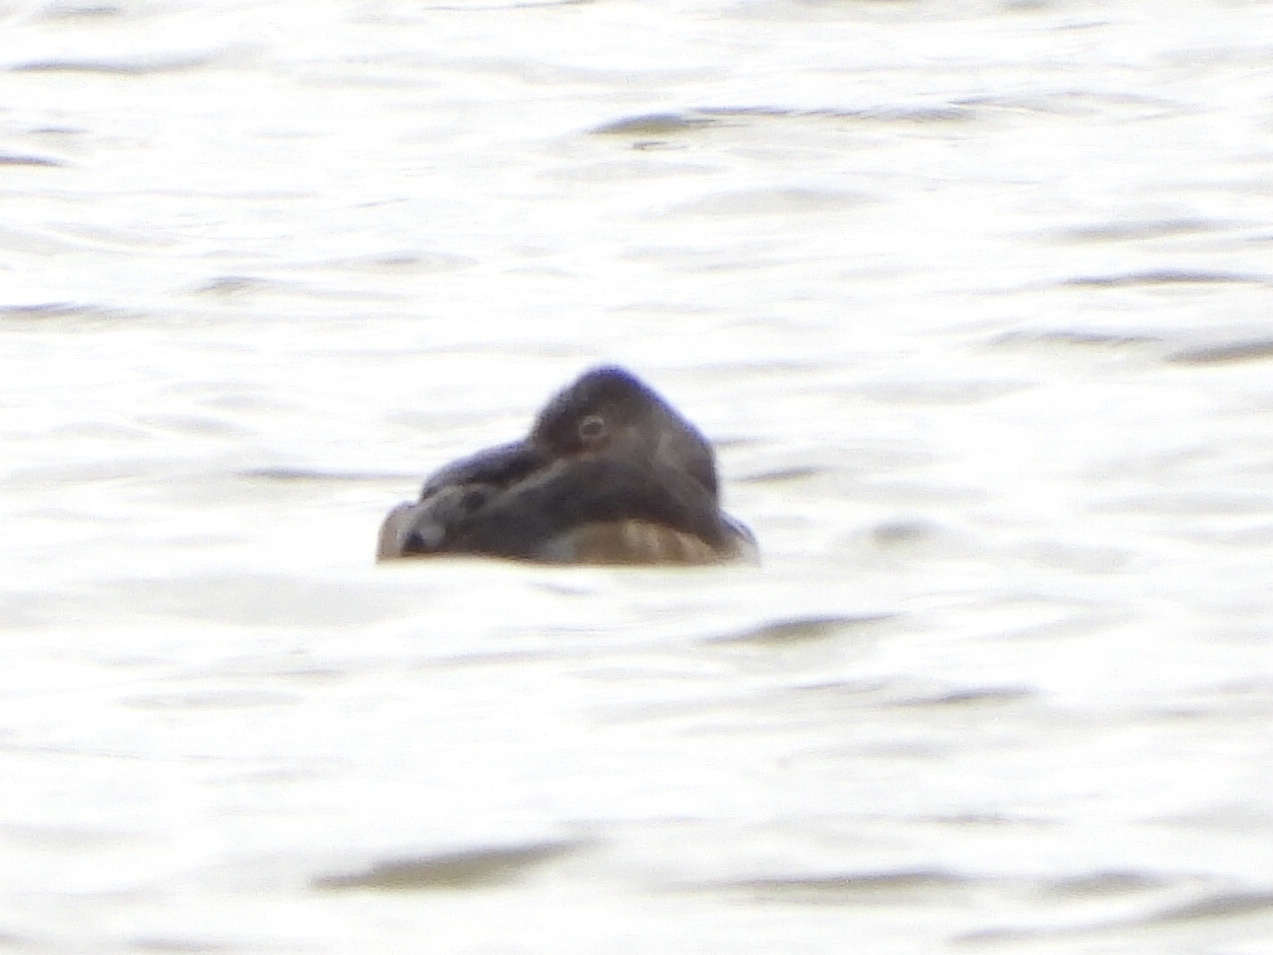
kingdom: Animalia
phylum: Chordata
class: Aves
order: Anseriformes
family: Anatidae
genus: Aythya
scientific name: Aythya collaris
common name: Ring-necked duck
